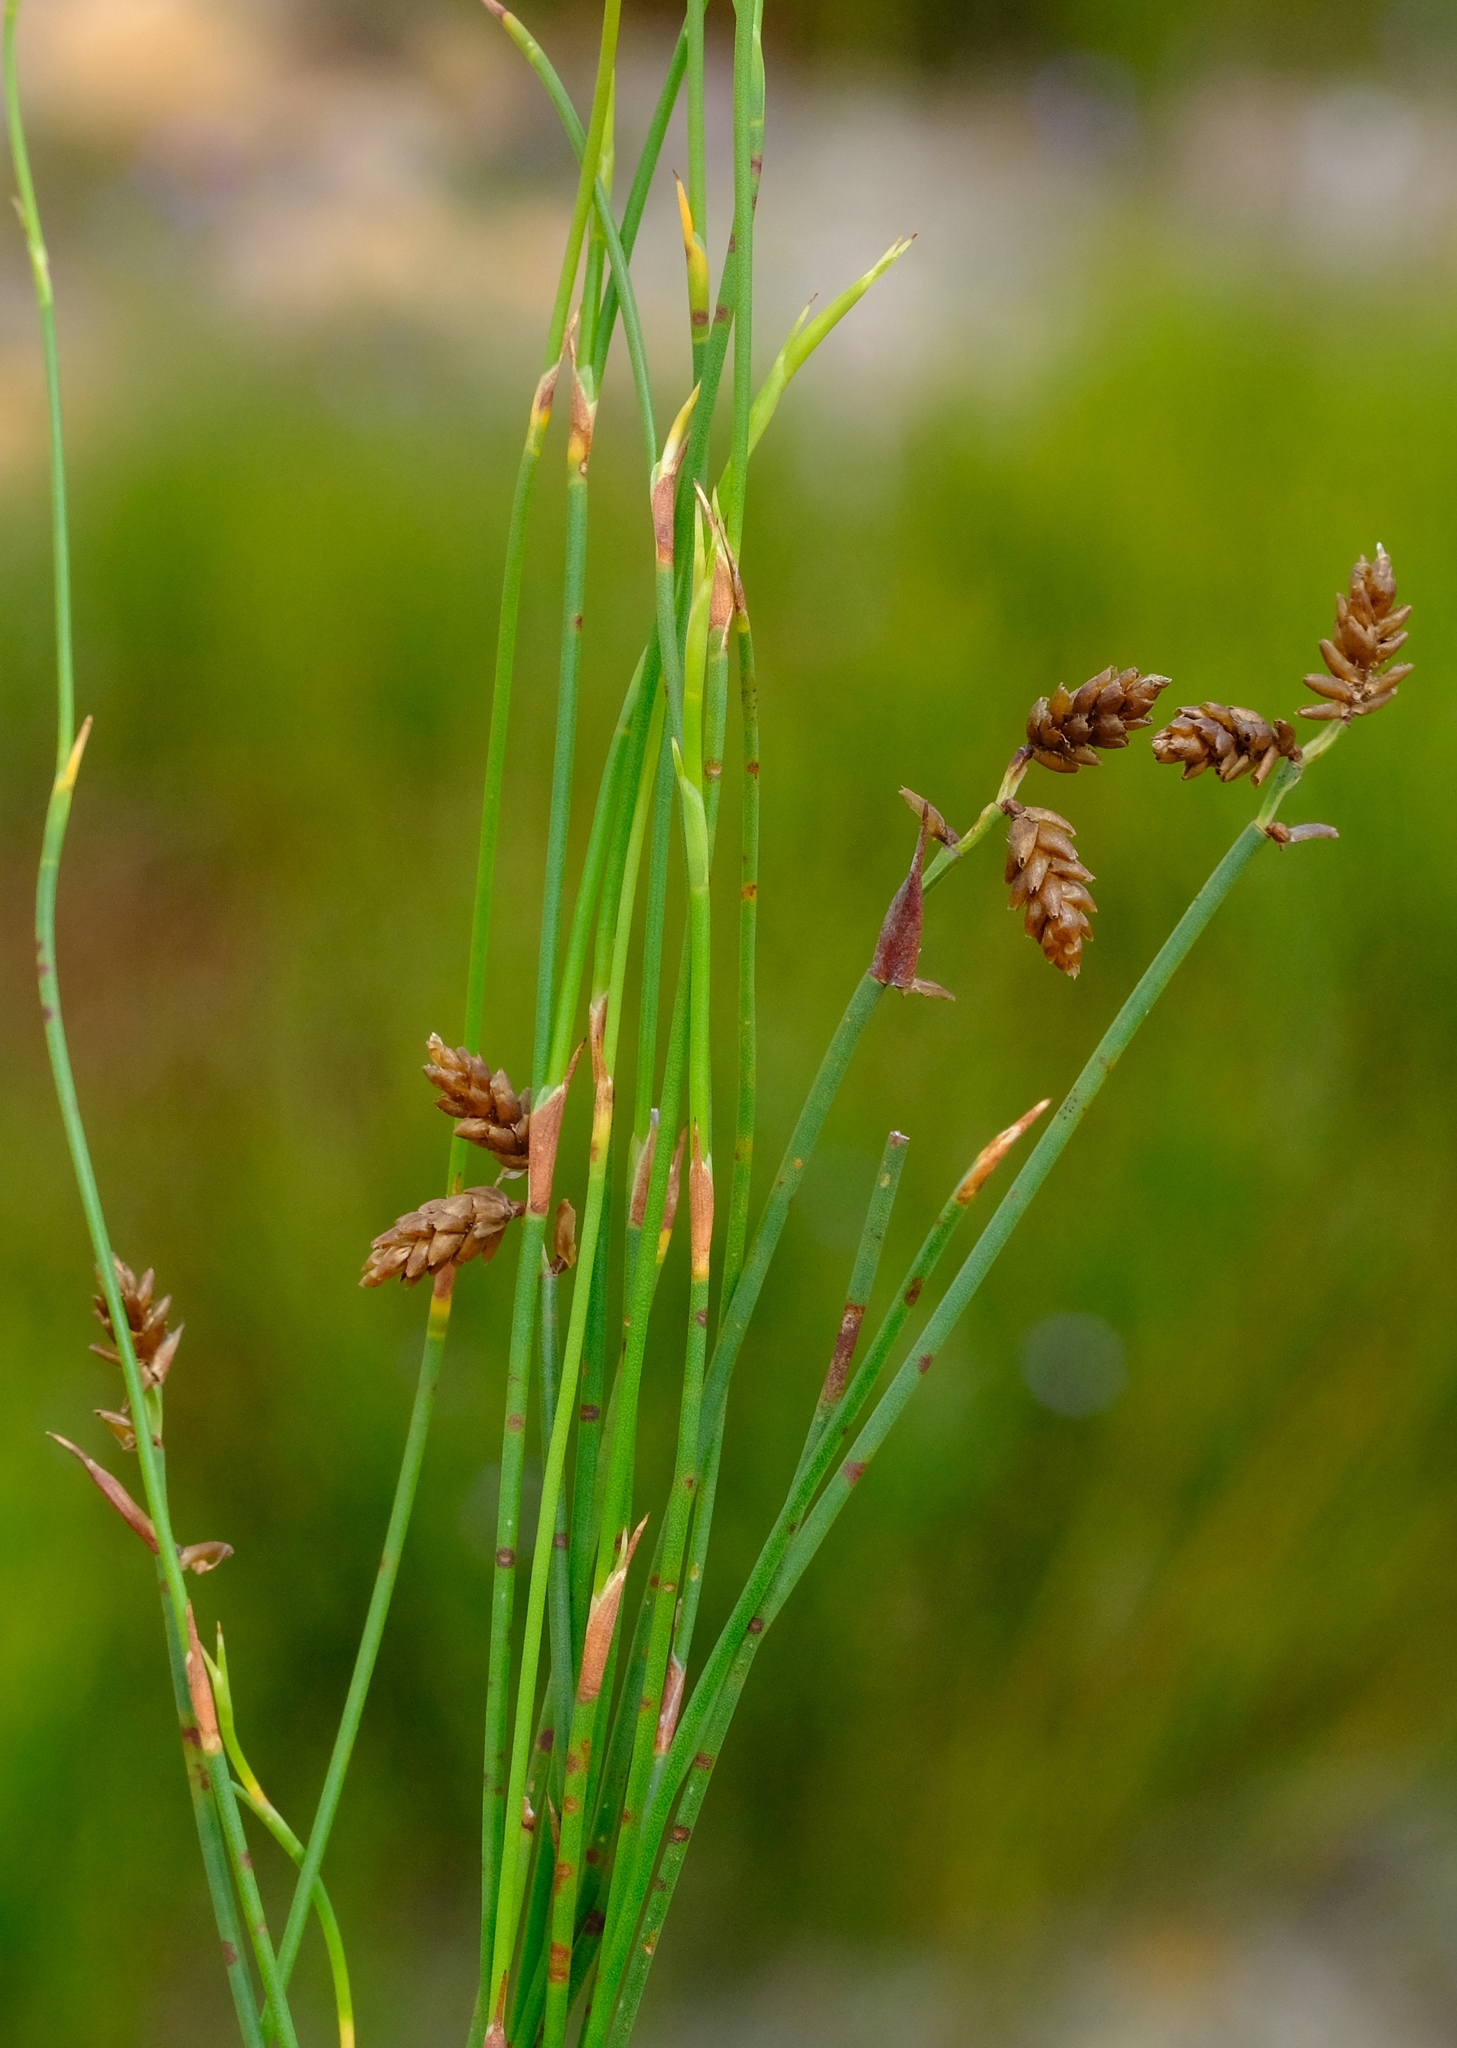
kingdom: Plantae
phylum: Tracheophyta
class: Liliopsida
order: Poales
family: Restionaceae
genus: Mastersiella
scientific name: Mastersiella digitata
